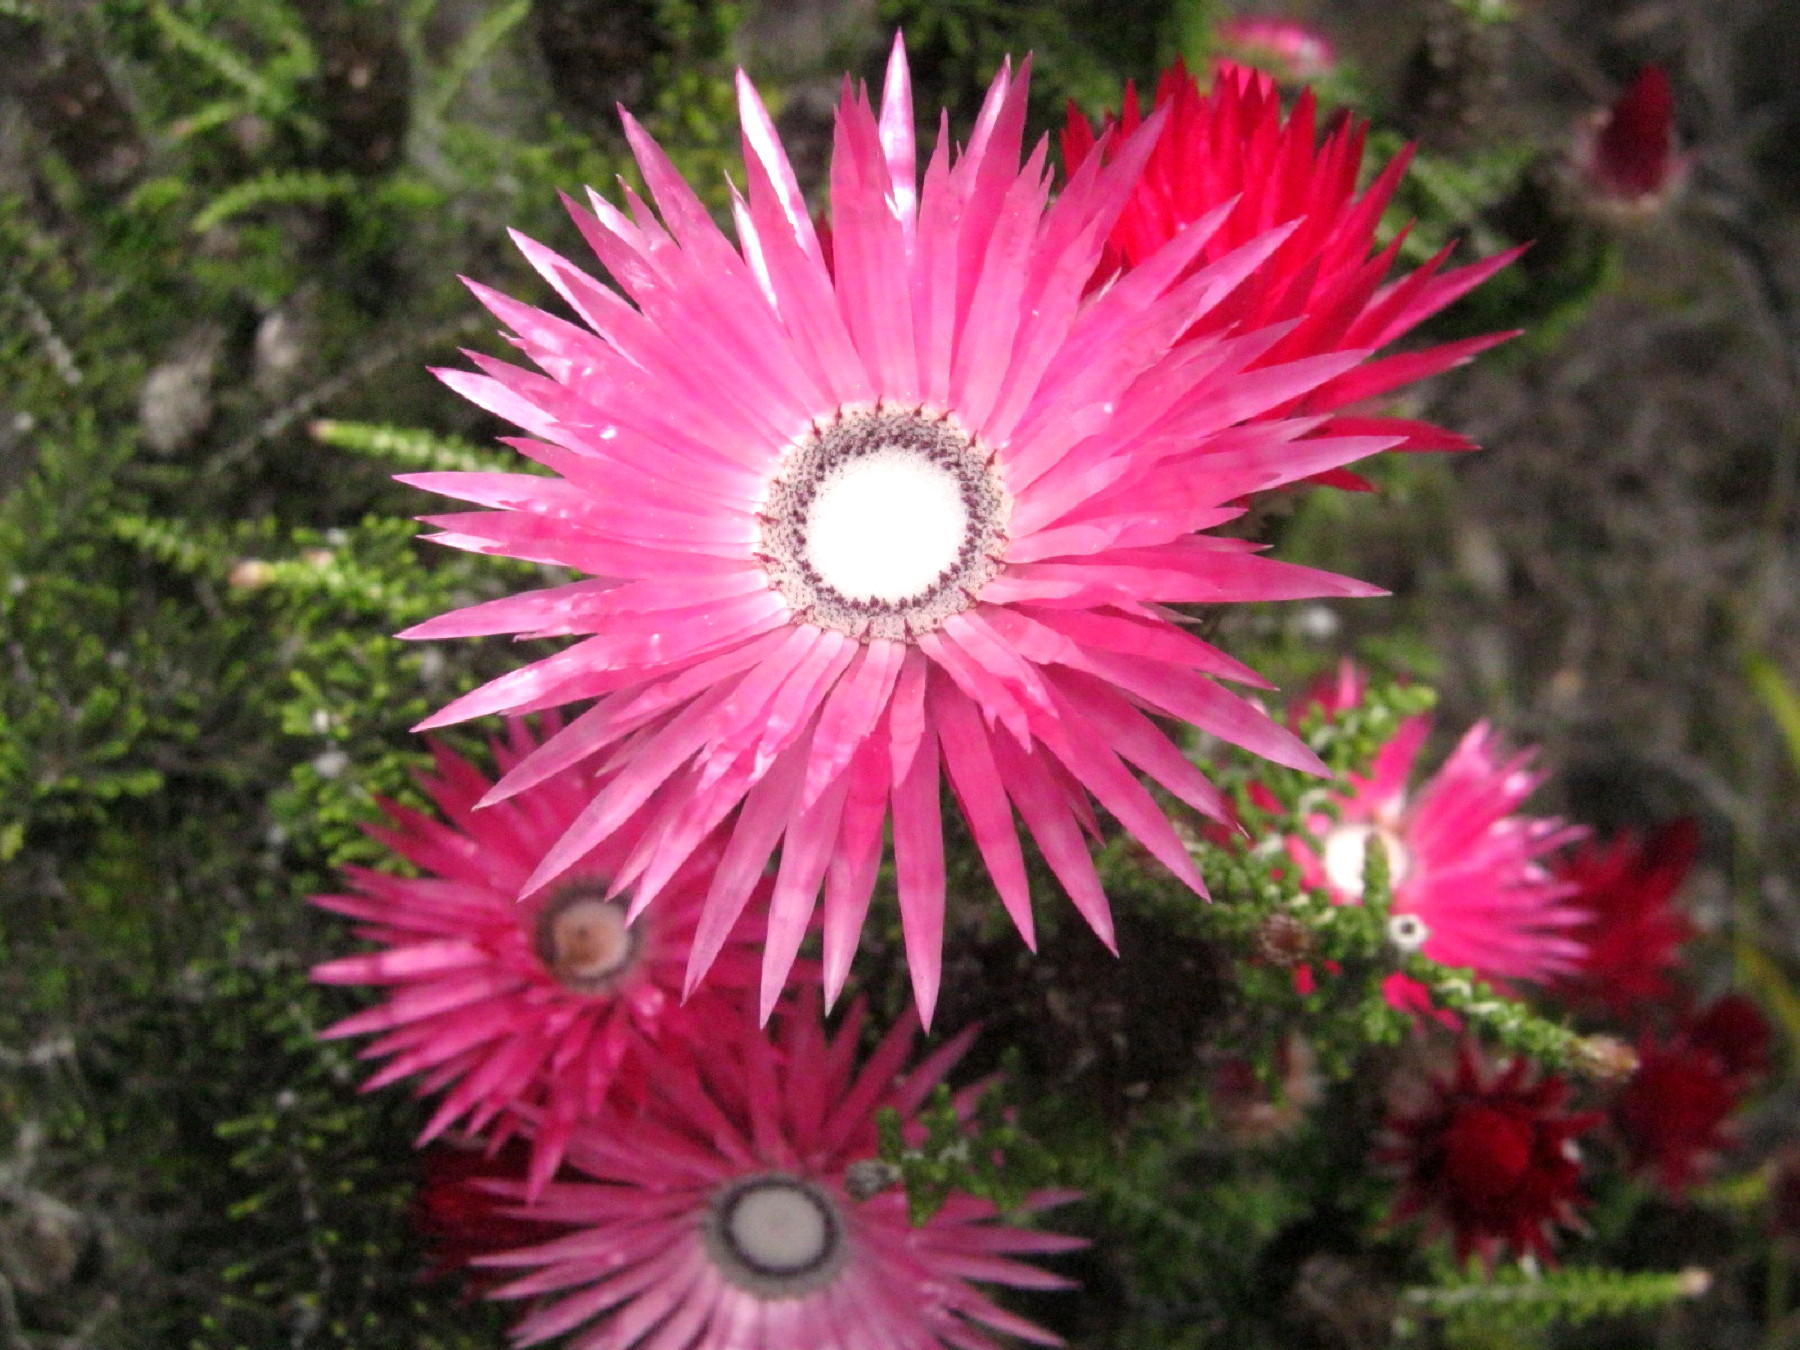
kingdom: Plantae
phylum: Tracheophyta
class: Magnoliopsida
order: Asterales
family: Asteraceae
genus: Phaenocoma
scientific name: Phaenocoma prolifera
